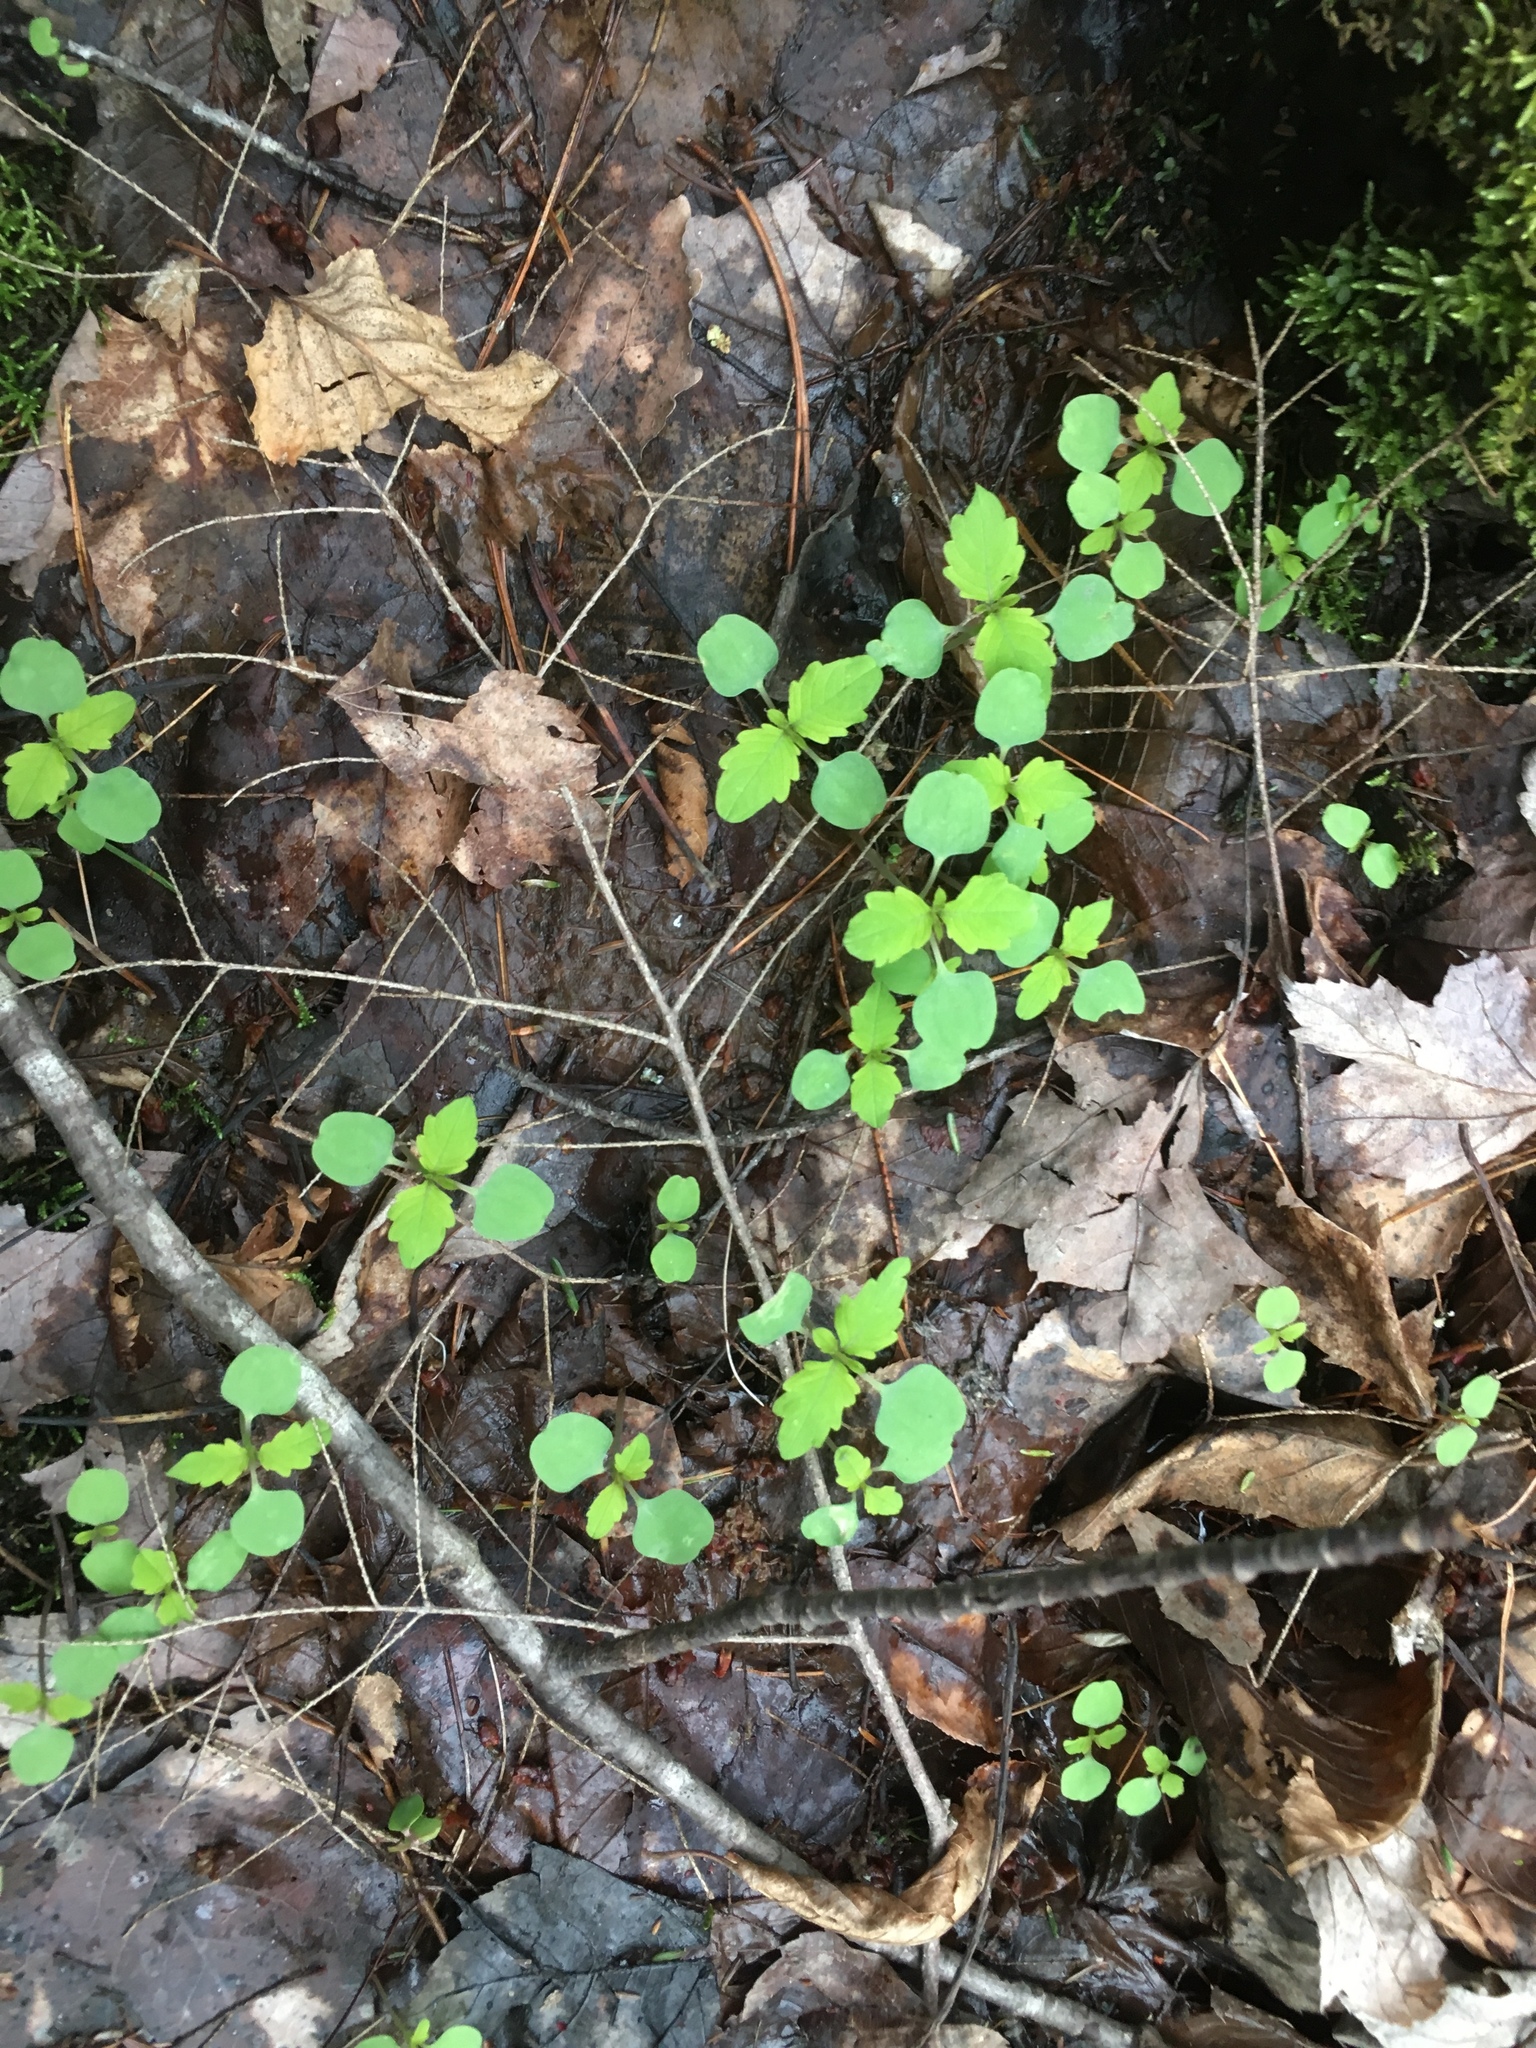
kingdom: Plantae
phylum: Tracheophyta
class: Magnoliopsida
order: Ericales
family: Balsaminaceae
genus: Impatiens
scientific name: Impatiens capensis
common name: Orange balsam
